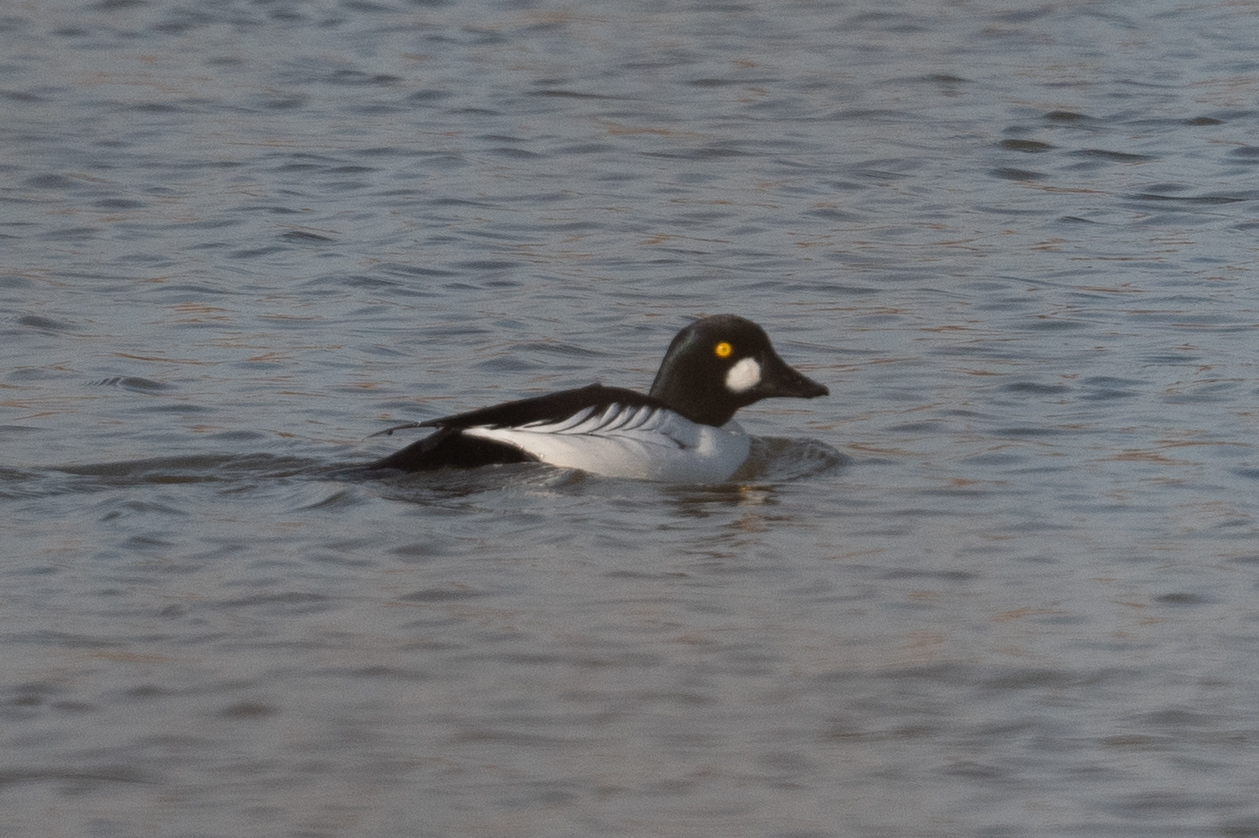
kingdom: Animalia
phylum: Chordata
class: Aves
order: Anseriformes
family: Anatidae
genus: Bucephala
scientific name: Bucephala clangula
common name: Common goldeneye
